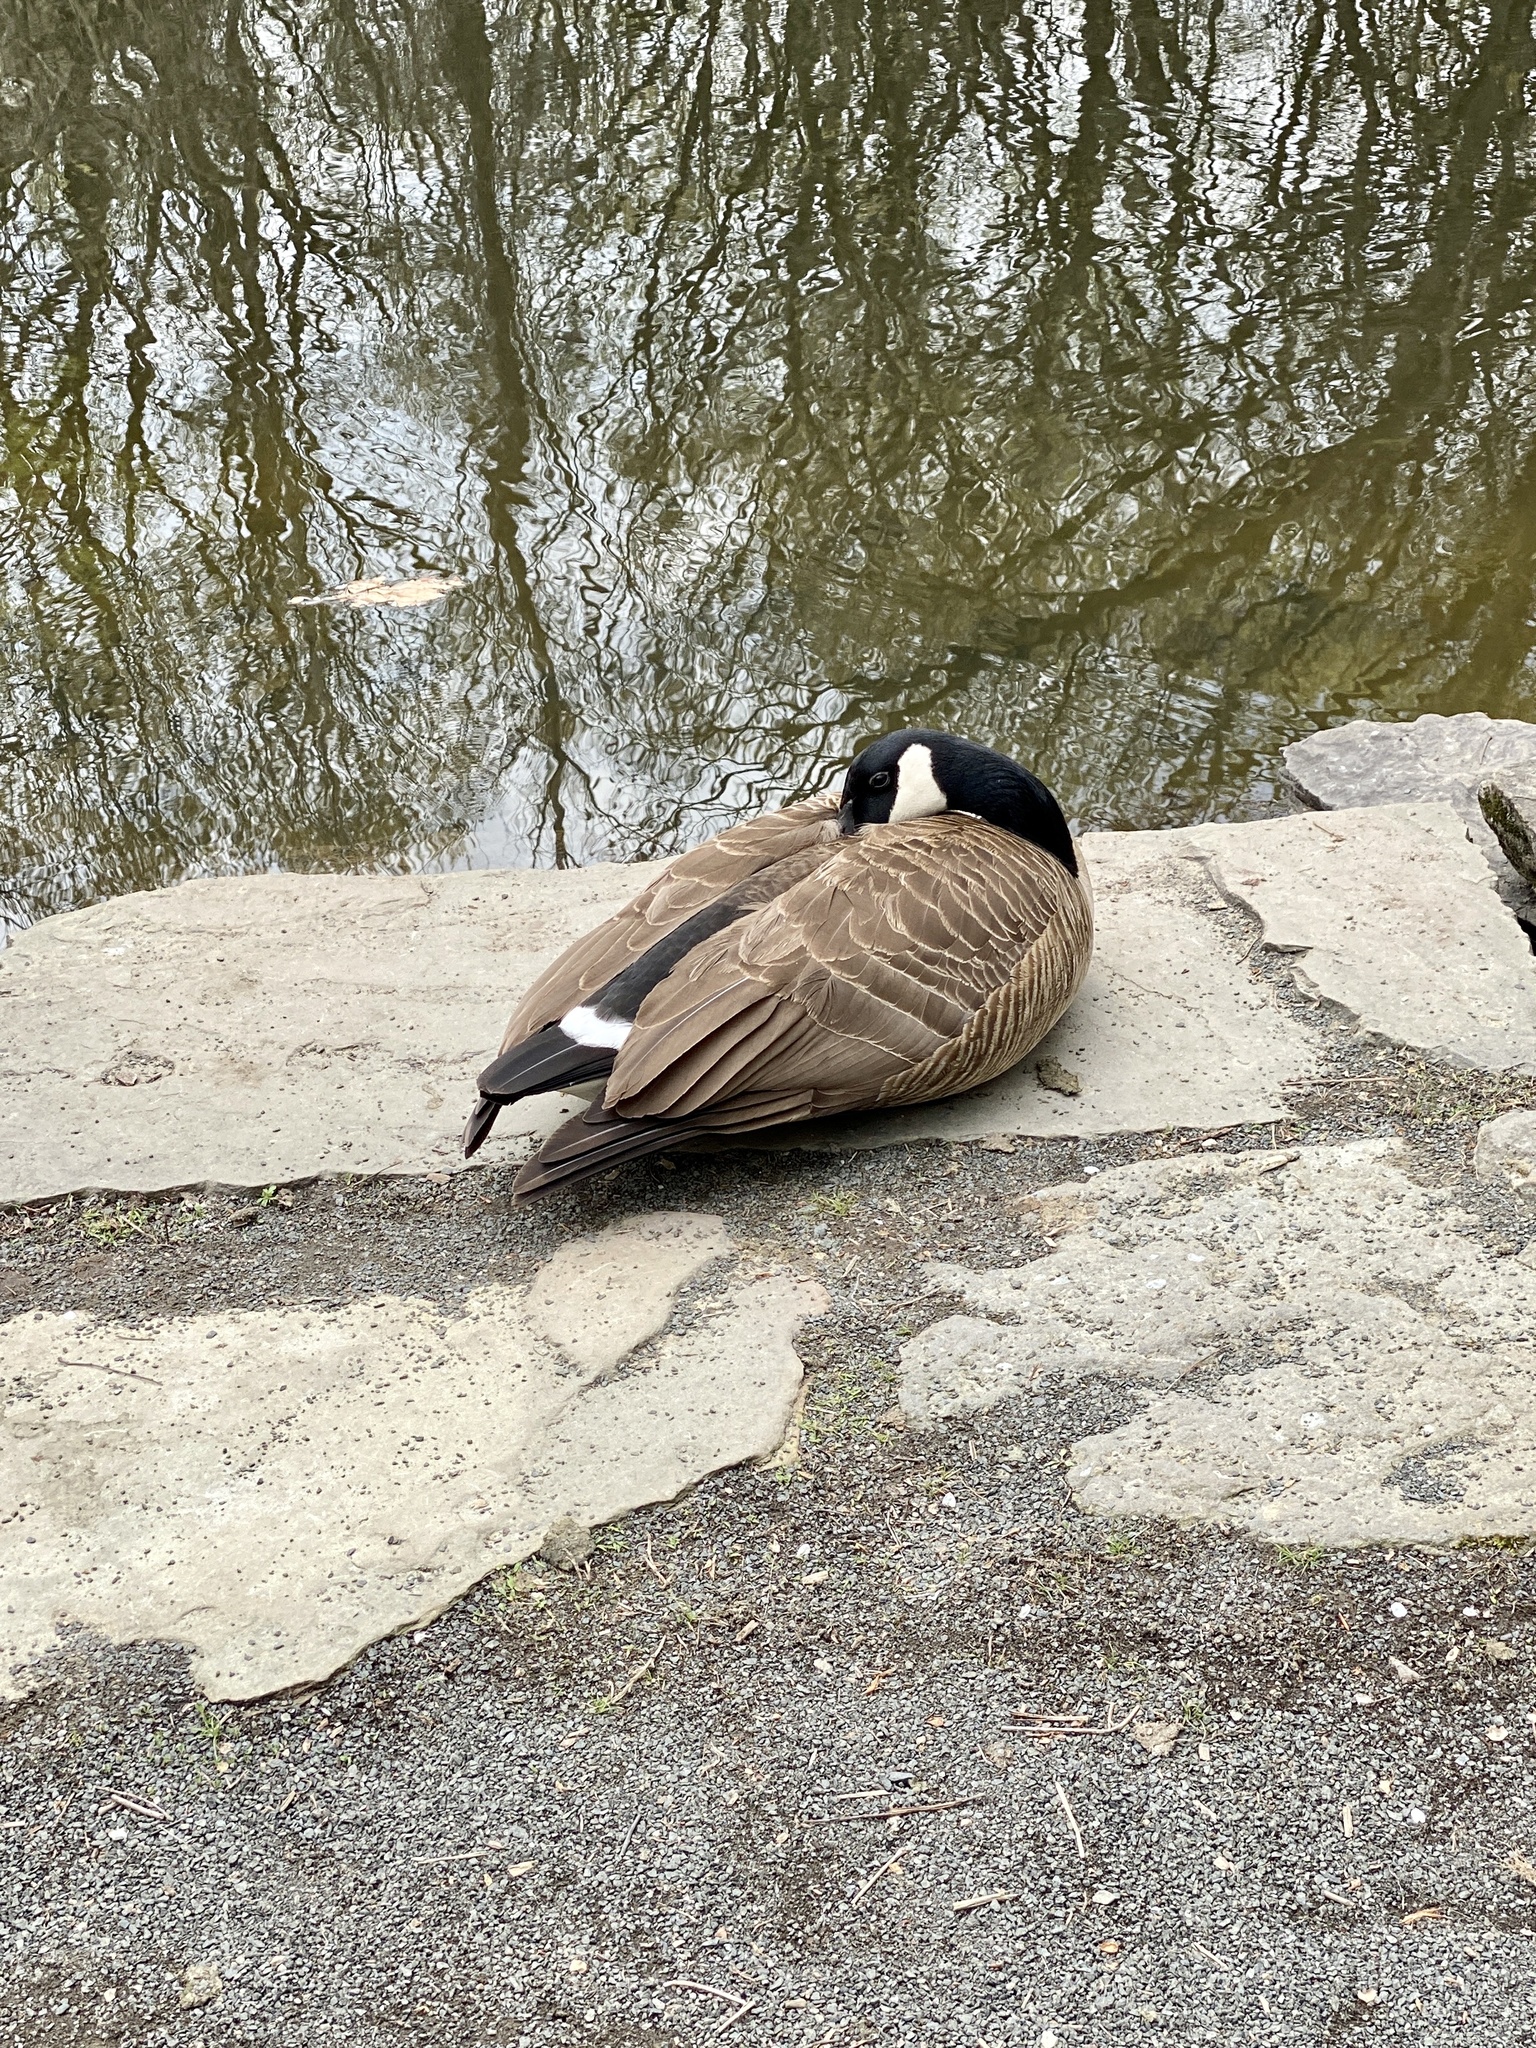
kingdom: Animalia
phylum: Chordata
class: Aves
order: Anseriformes
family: Anatidae
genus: Branta
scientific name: Branta canadensis
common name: Canada goose
